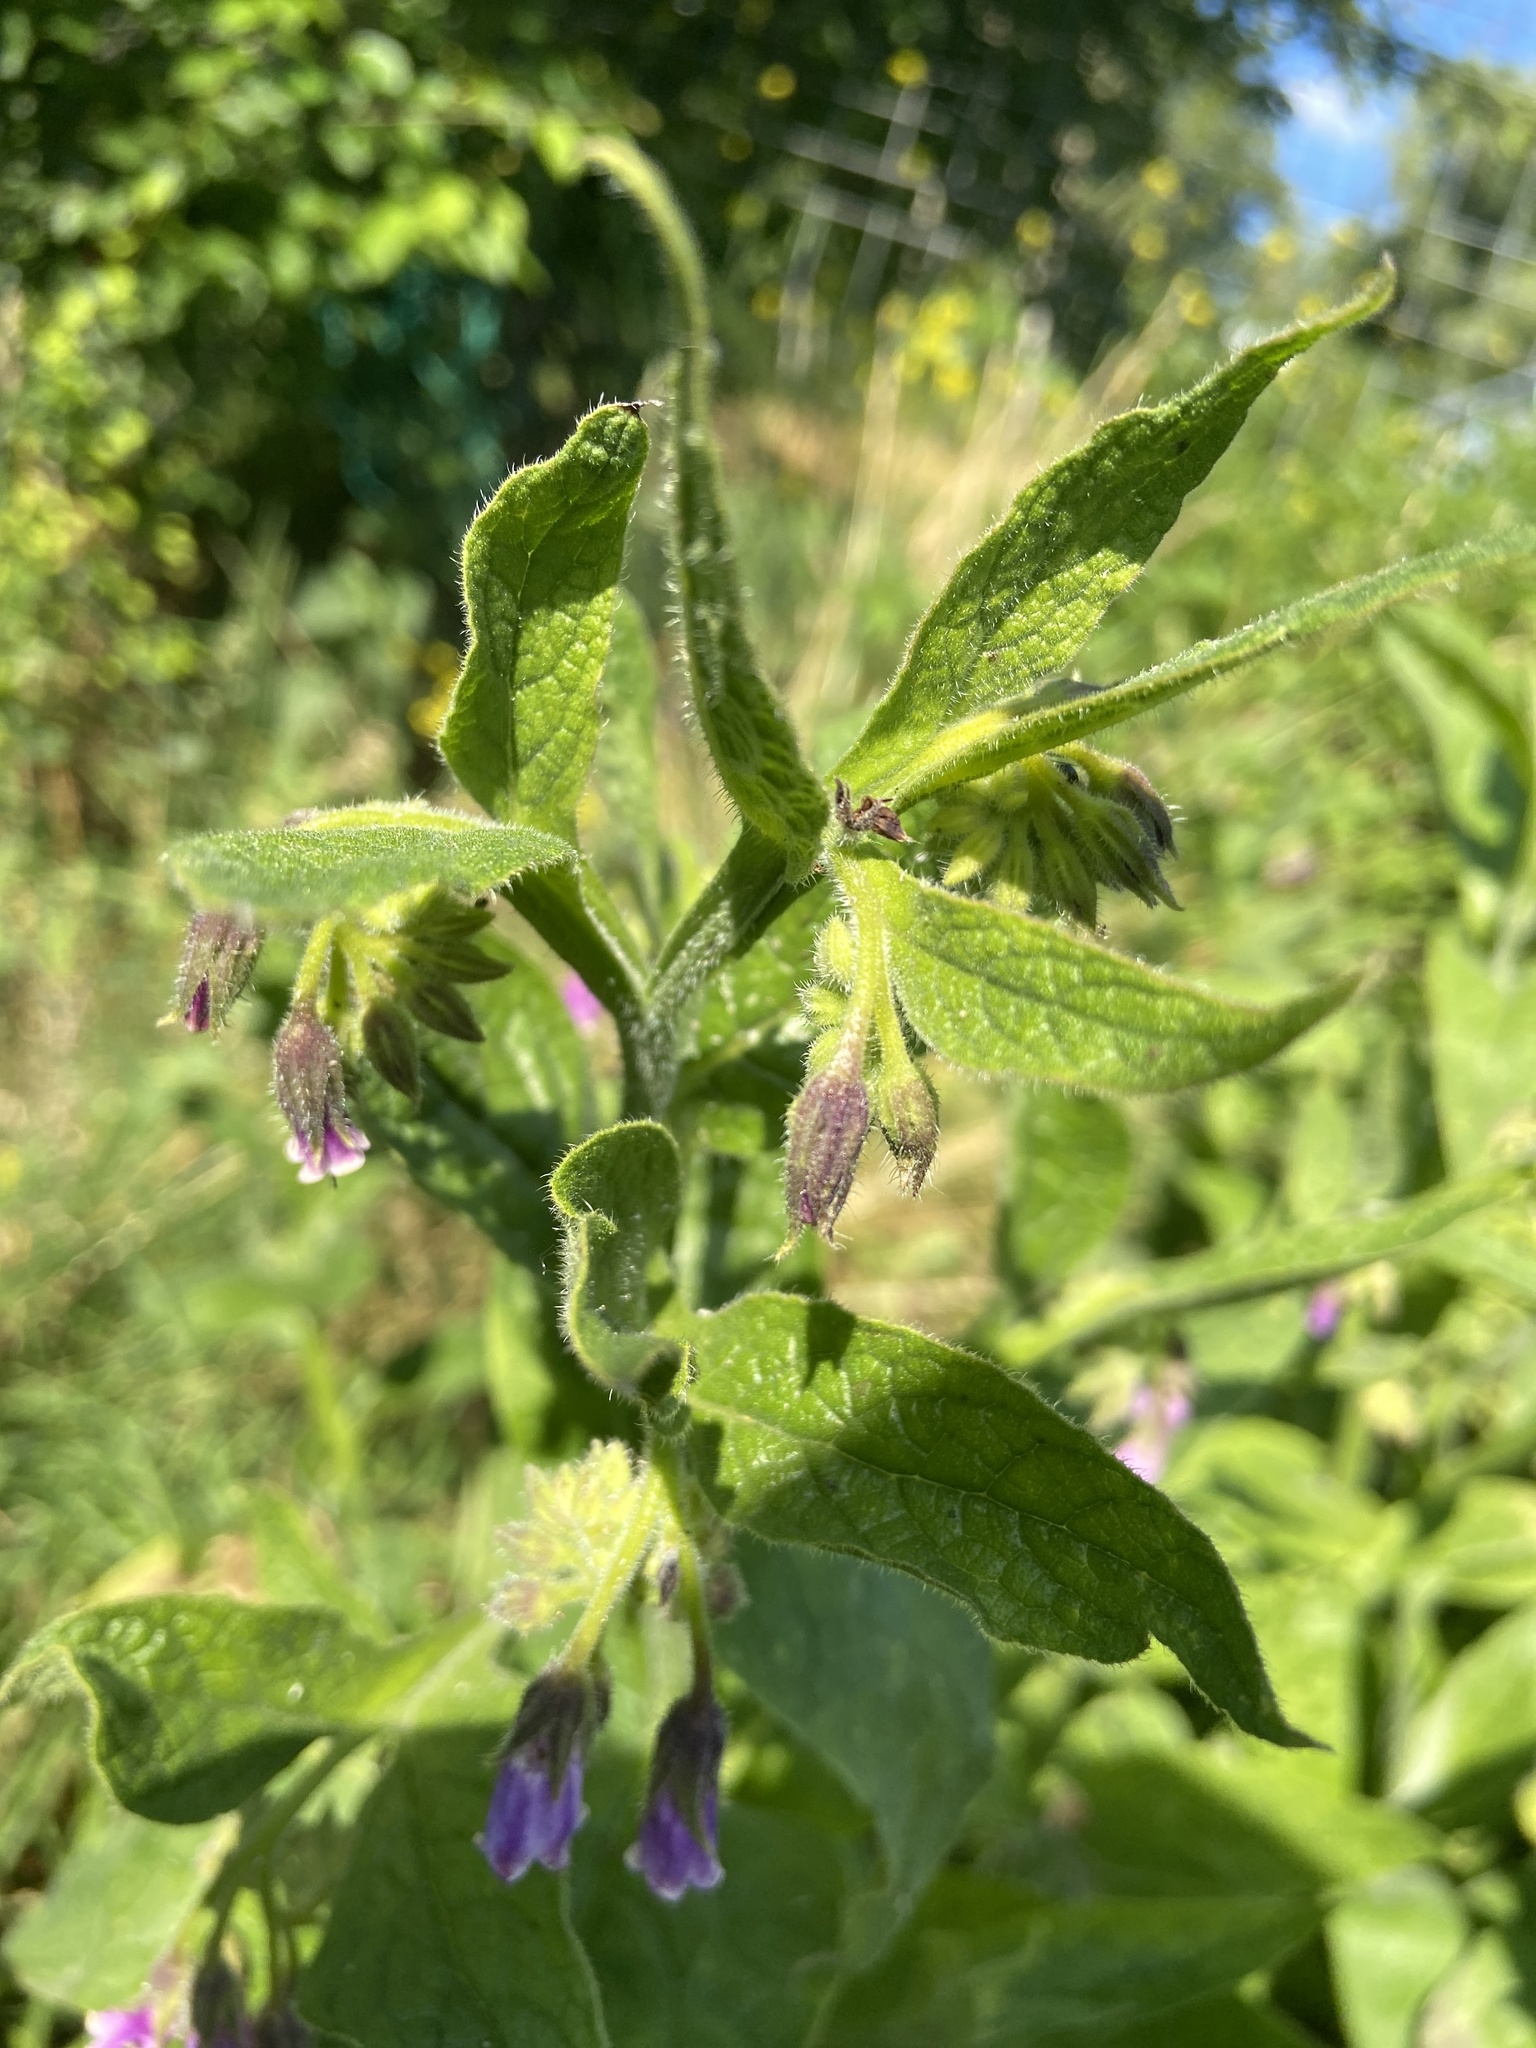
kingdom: Plantae
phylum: Tracheophyta
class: Magnoliopsida
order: Boraginales
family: Boraginaceae
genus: Symphytum
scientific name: Symphytum officinale
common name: Common comfrey
